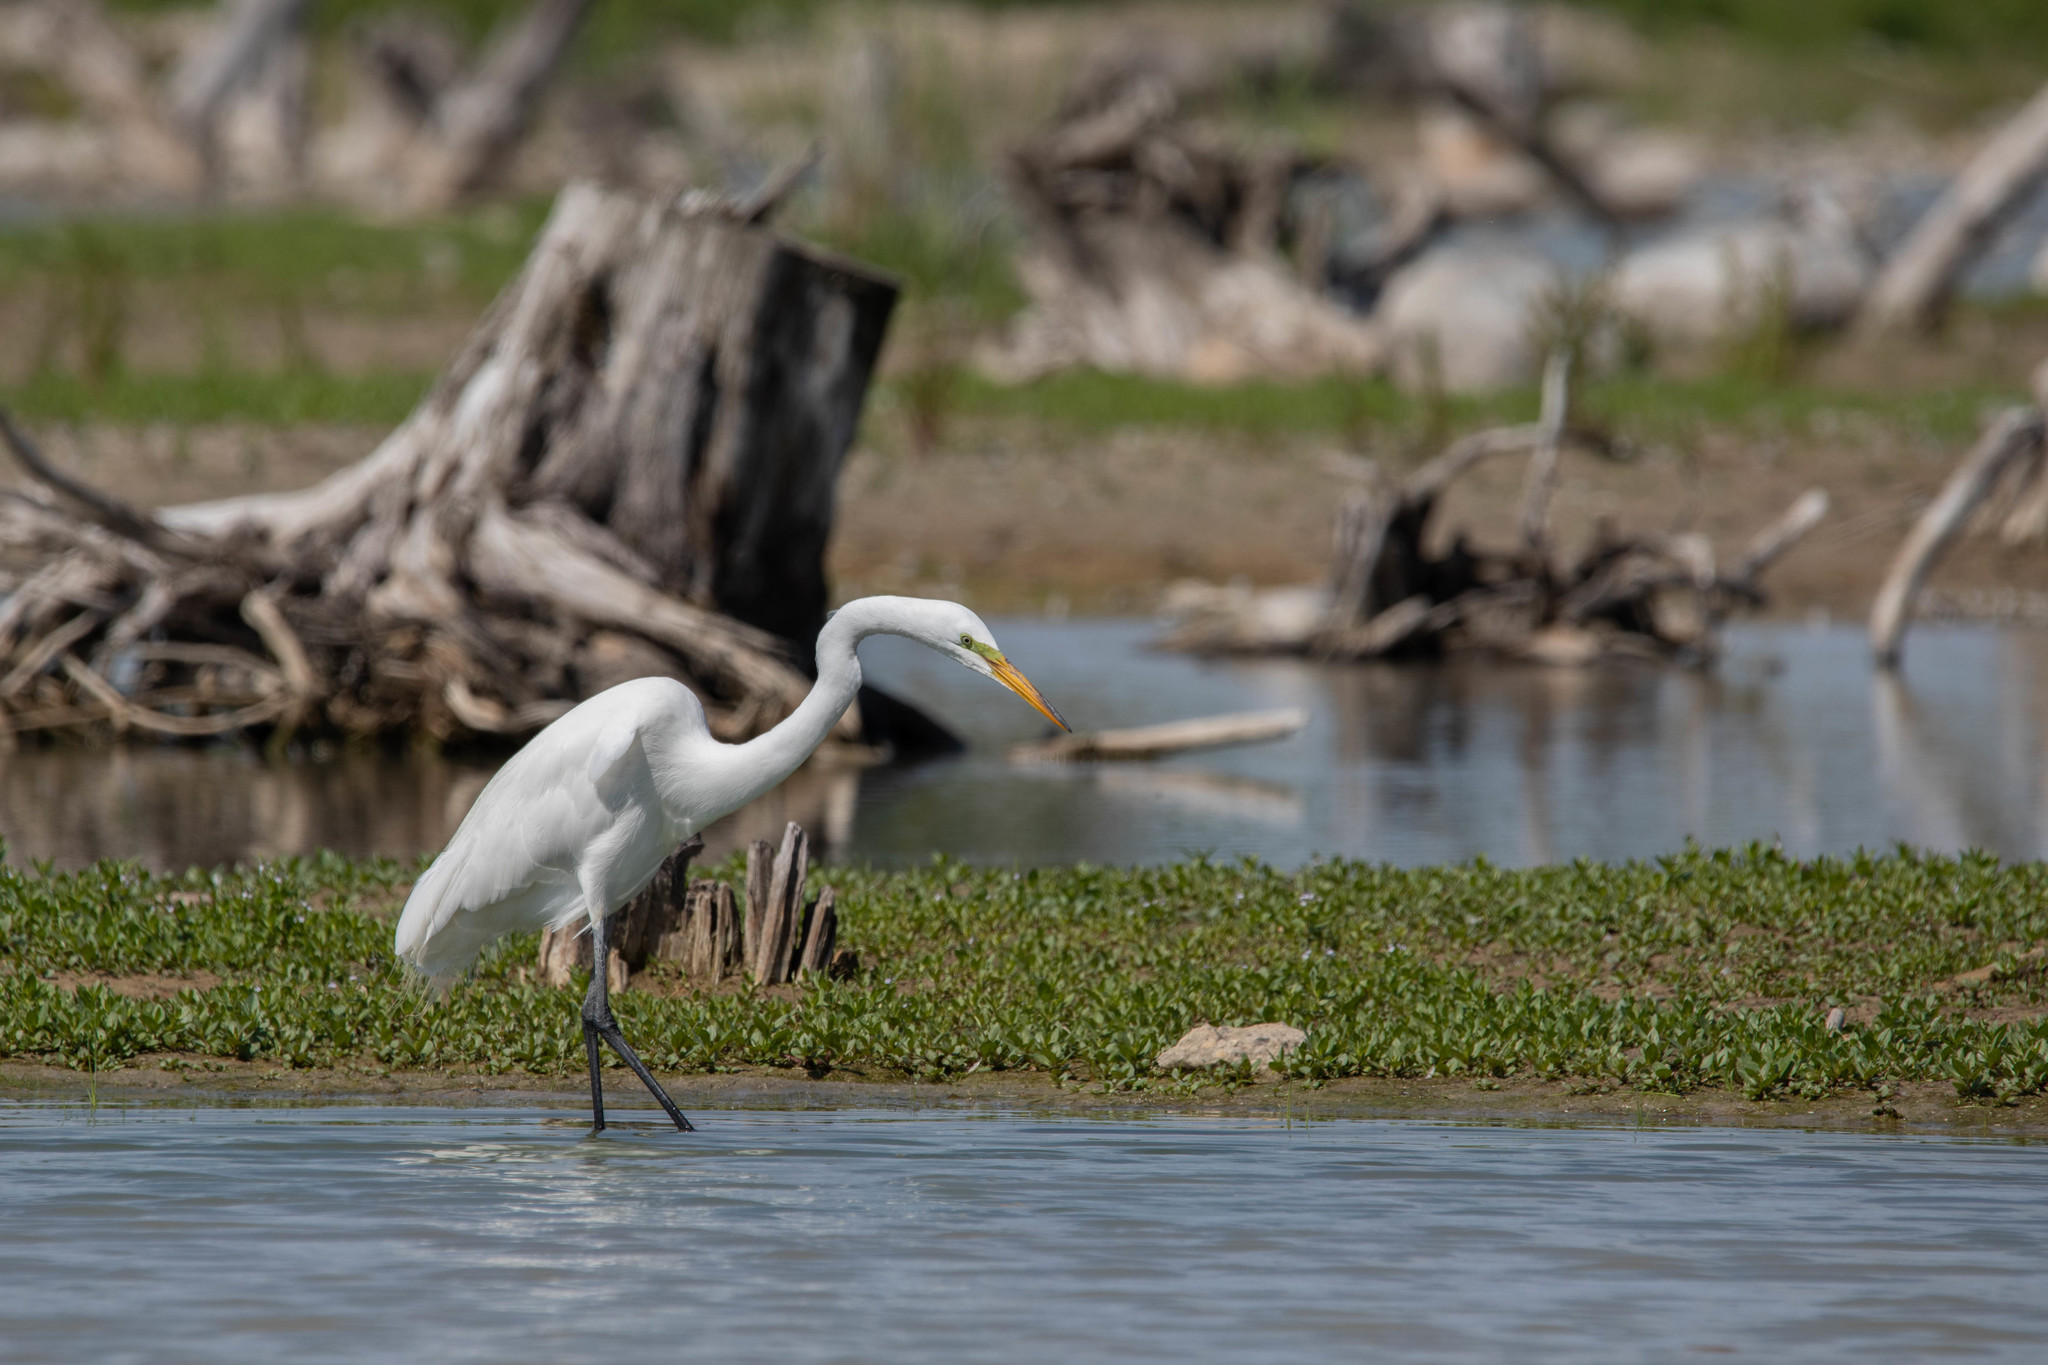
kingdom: Animalia
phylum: Chordata
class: Aves
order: Pelecaniformes
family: Ardeidae
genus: Ardea
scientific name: Ardea alba
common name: Great egret
